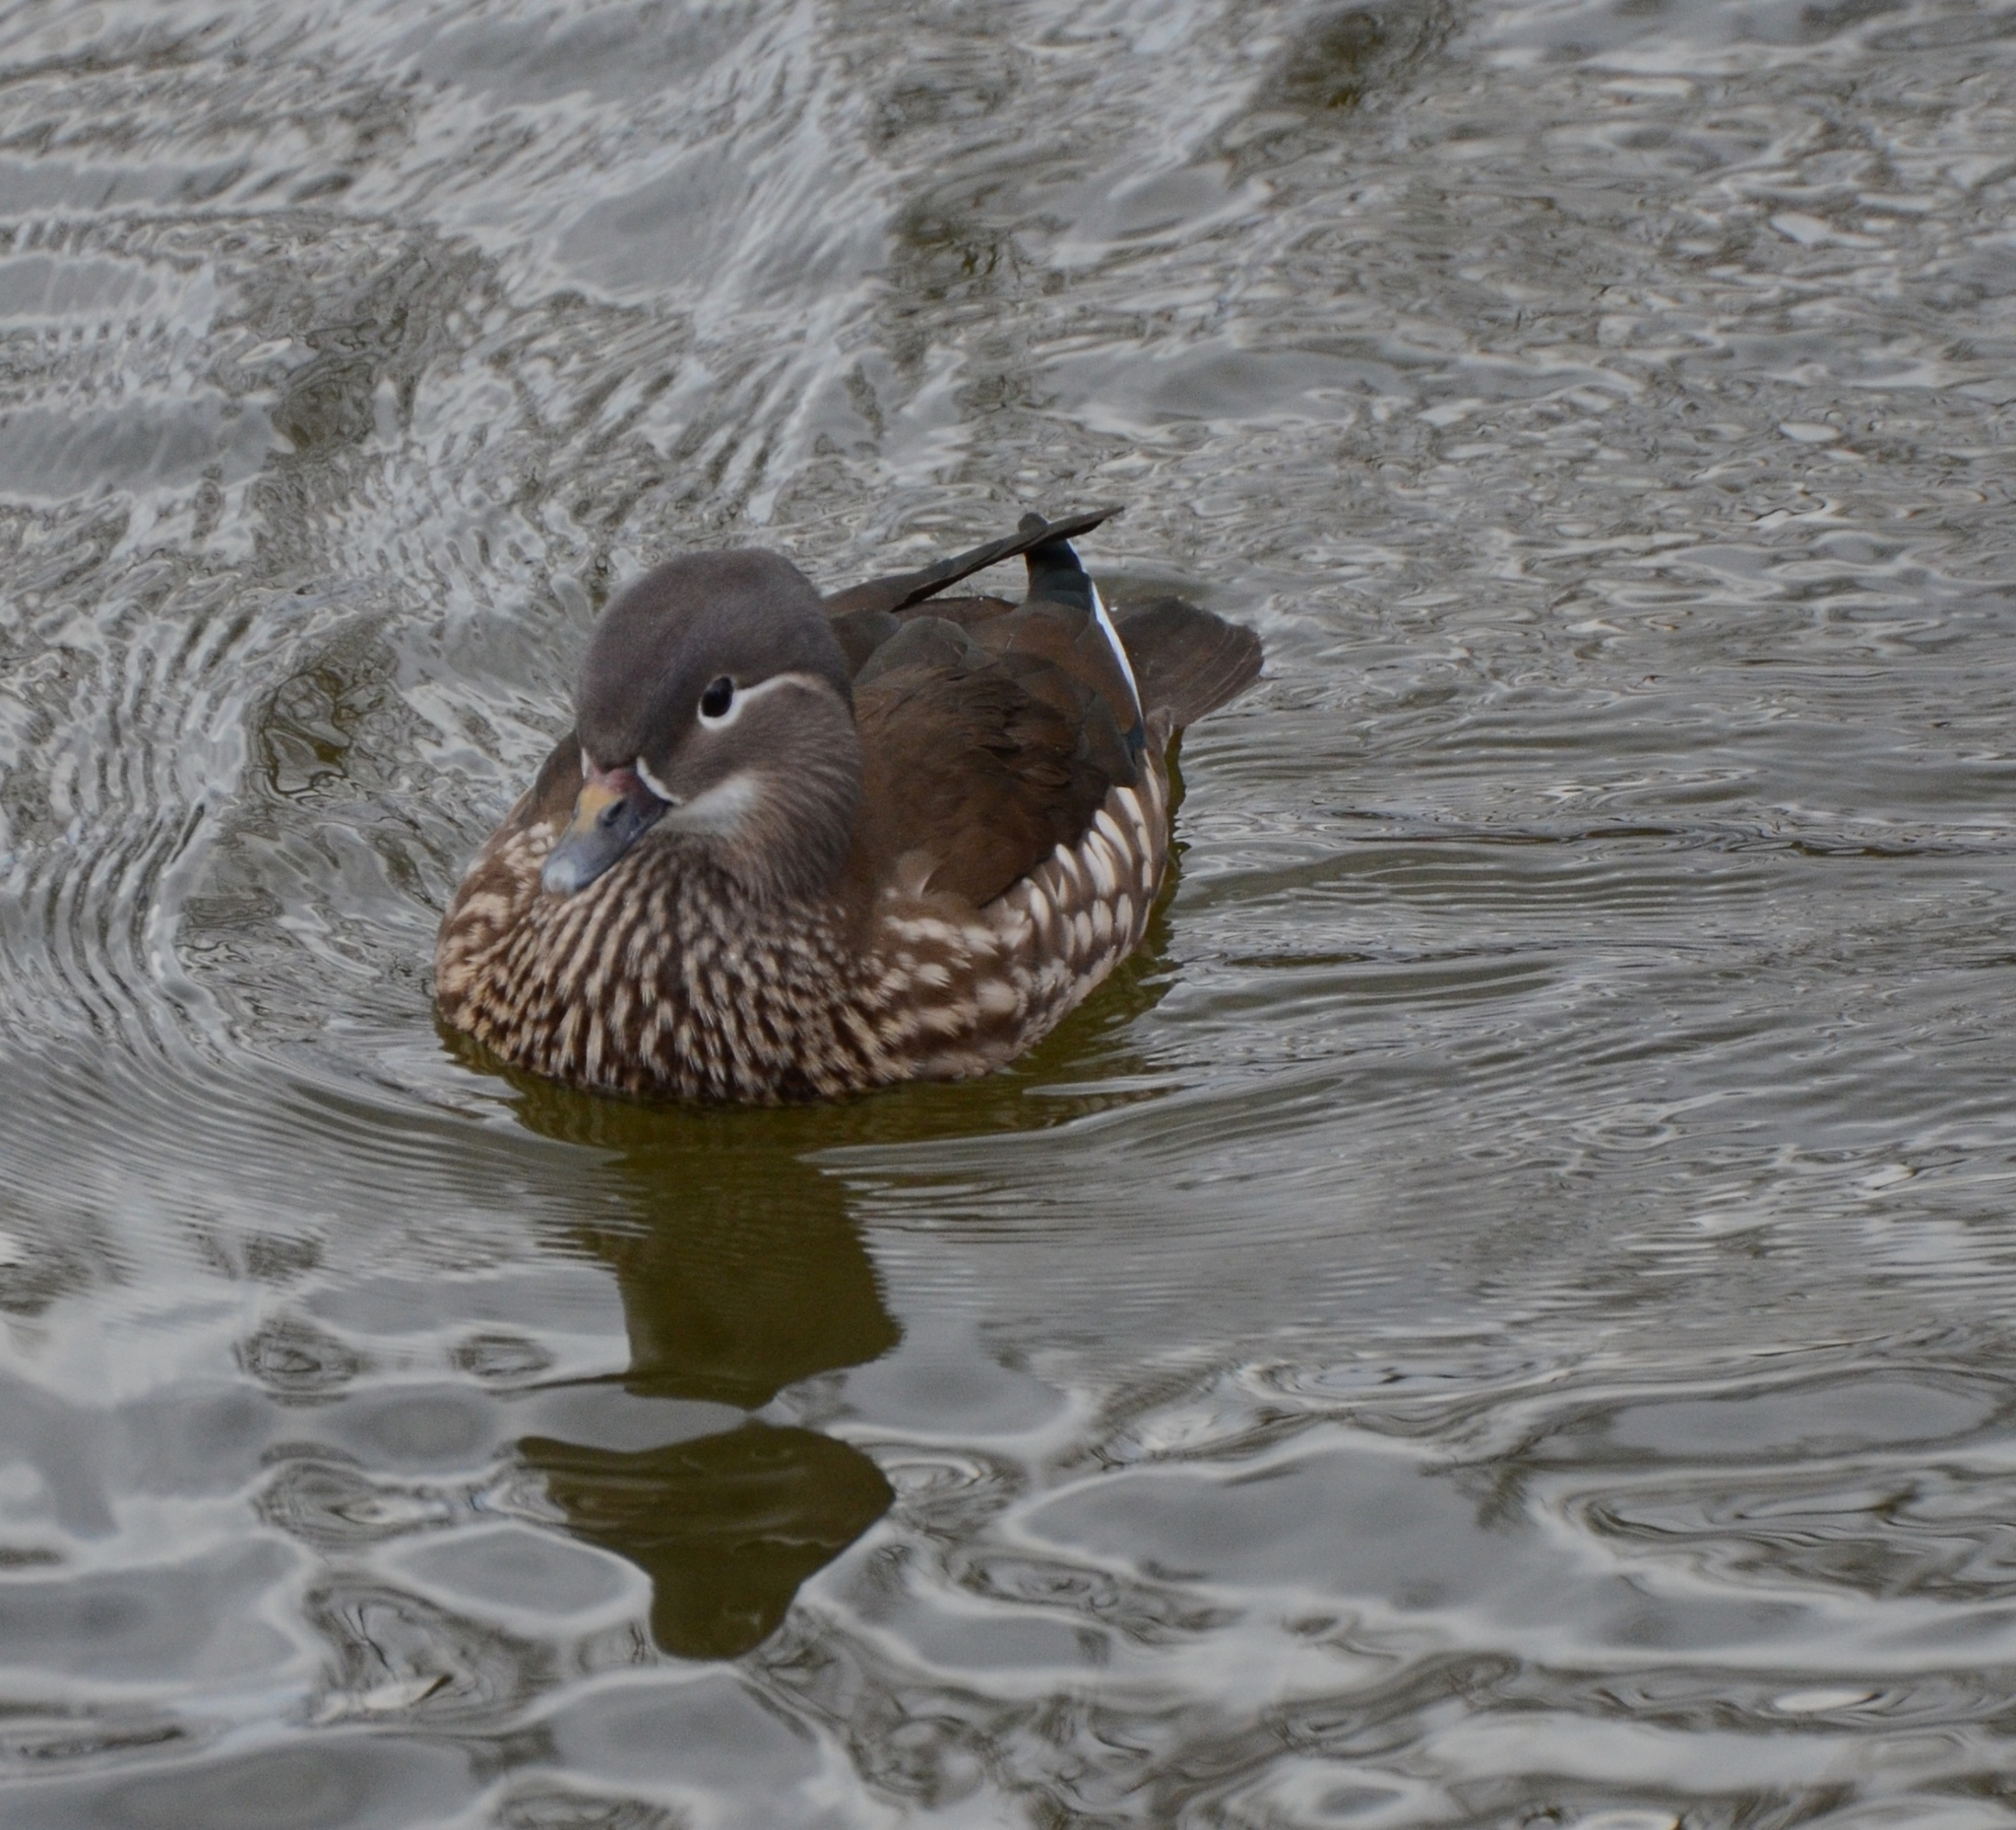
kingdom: Animalia
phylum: Chordata
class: Aves
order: Anseriformes
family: Anatidae
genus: Aix
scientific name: Aix galericulata
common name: Mandarin duck
